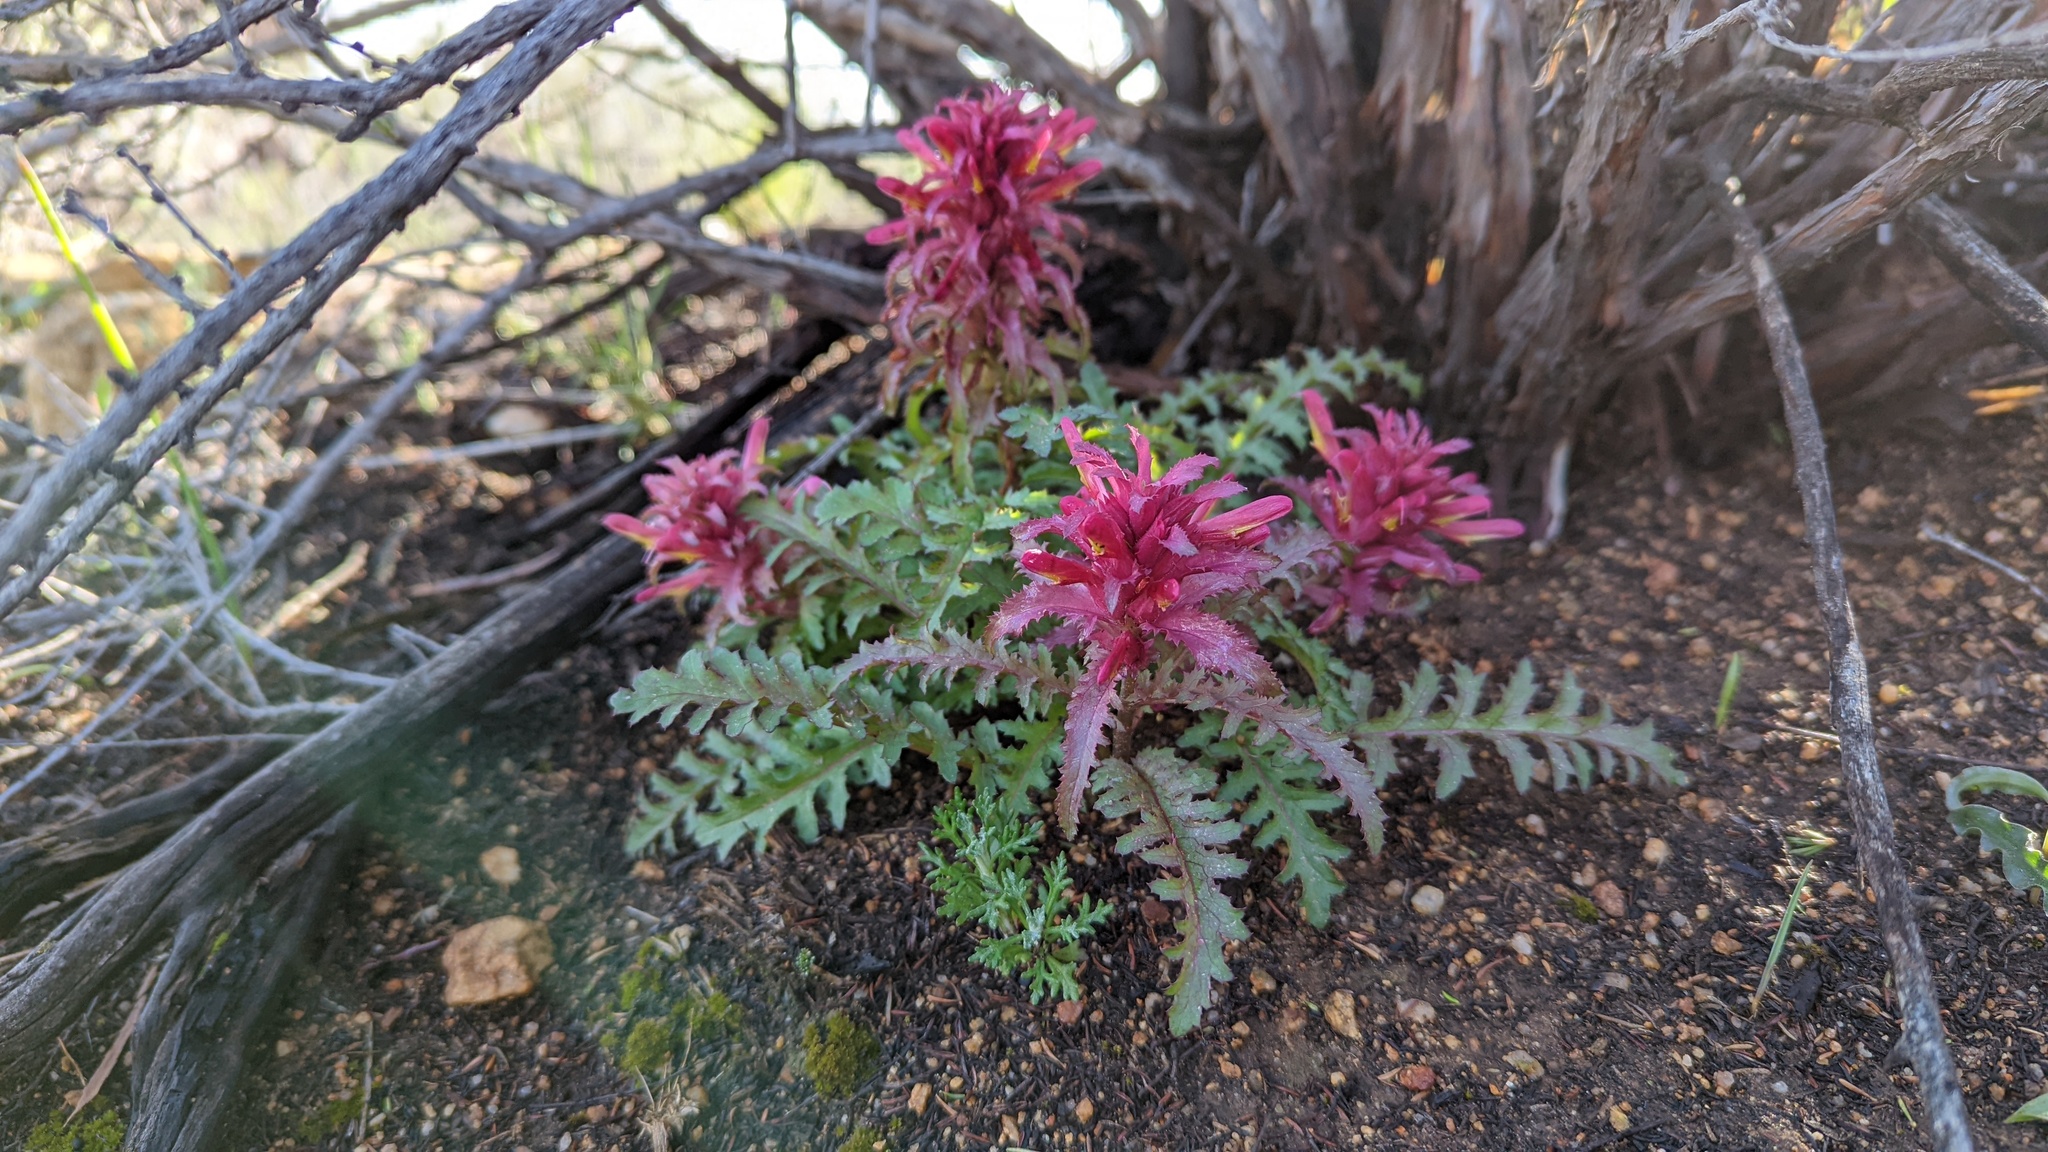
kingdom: Plantae
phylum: Tracheophyta
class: Magnoliopsida
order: Lamiales
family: Orobanchaceae
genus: Pedicularis
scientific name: Pedicularis densiflora
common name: Indian warrior
